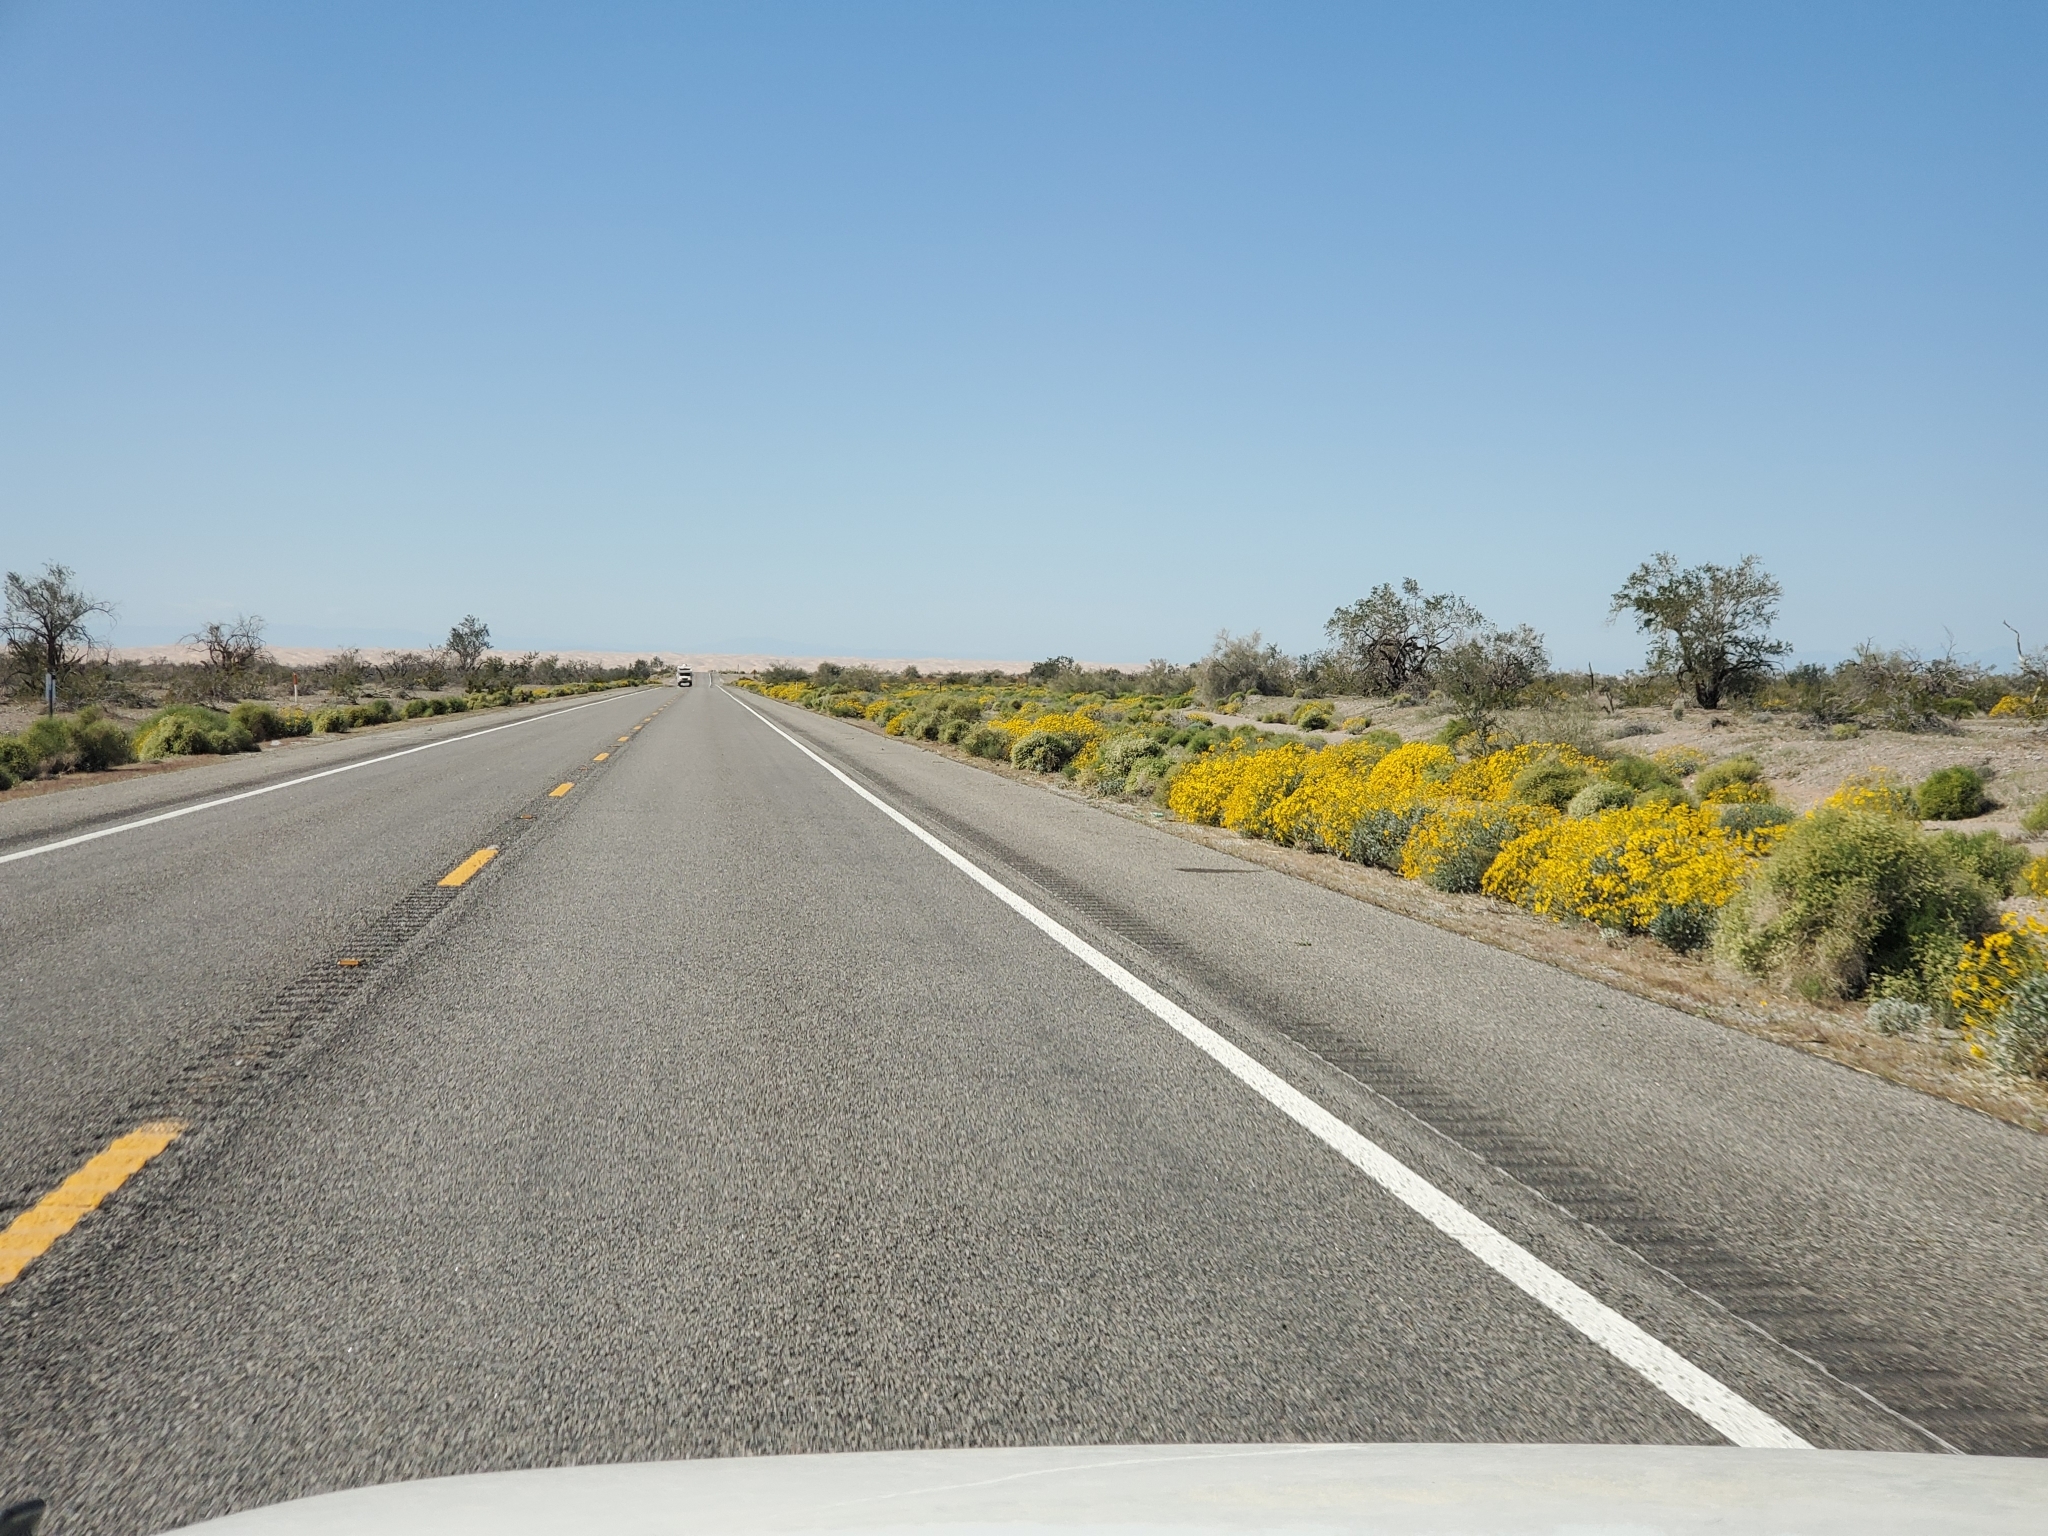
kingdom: Plantae
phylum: Tracheophyta
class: Magnoliopsida
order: Asterales
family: Asteraceae
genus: Encelia
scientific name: Encelia farinosa
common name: Brittlebush
